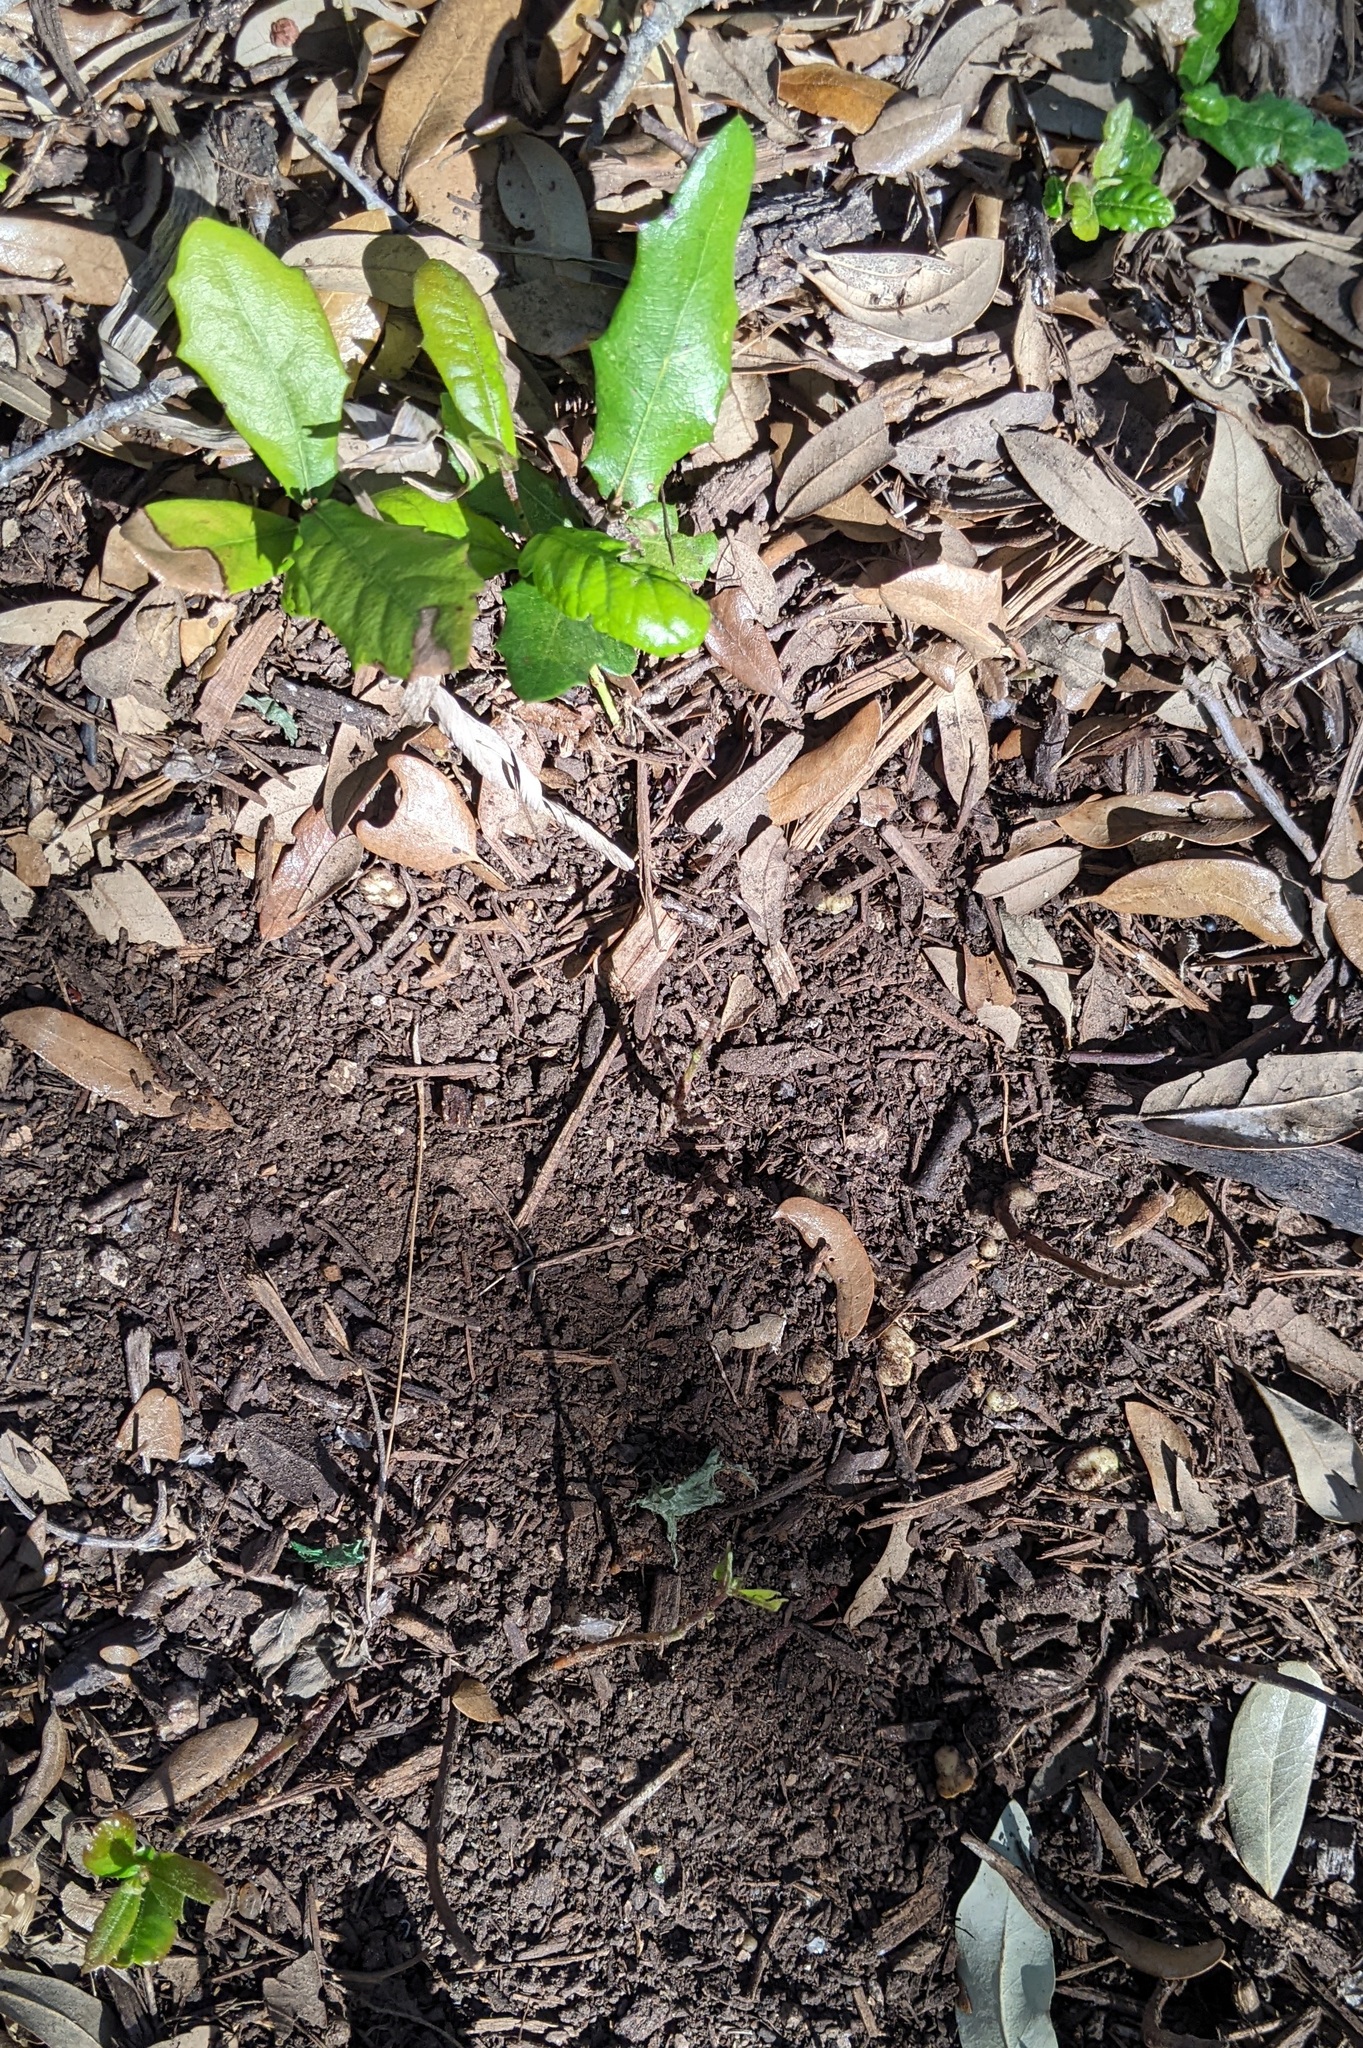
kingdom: Animalia
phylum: Arthropoda
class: Insecta
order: Hymenoptera
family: Cynipidae
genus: Belonocnema
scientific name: Belonocnema kinseyi
